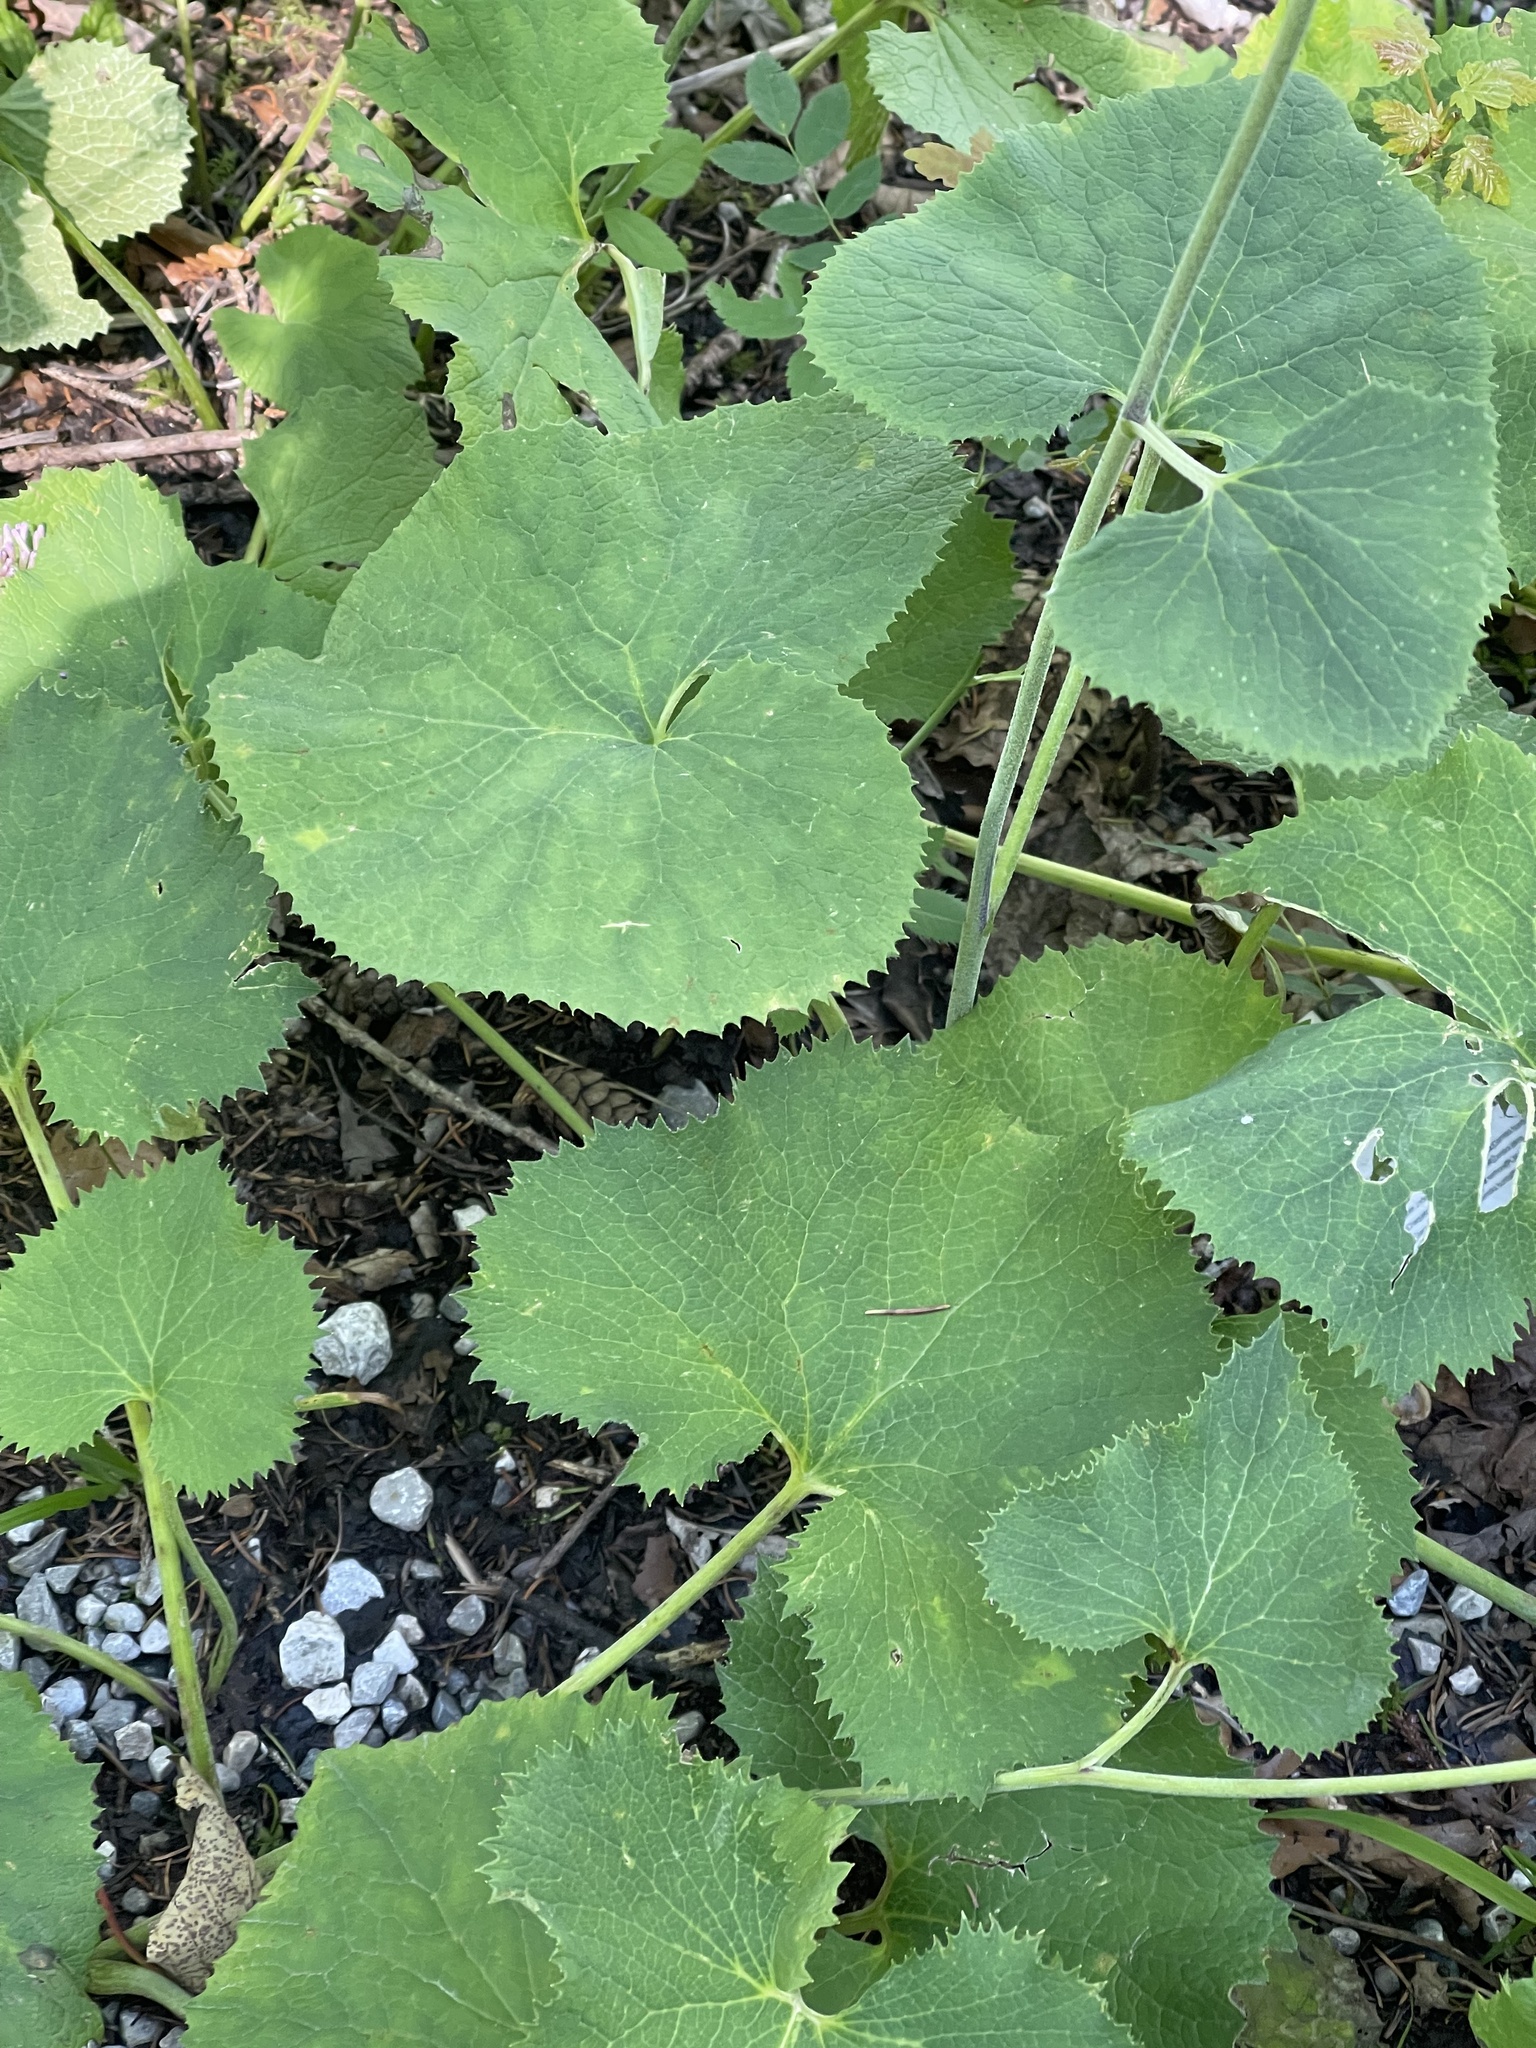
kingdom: Plantae
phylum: Tracheophyta
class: Magnoliopsida
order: Asterales
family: Asteraceae
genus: Adenostyles
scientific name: Adenostyles alpina
